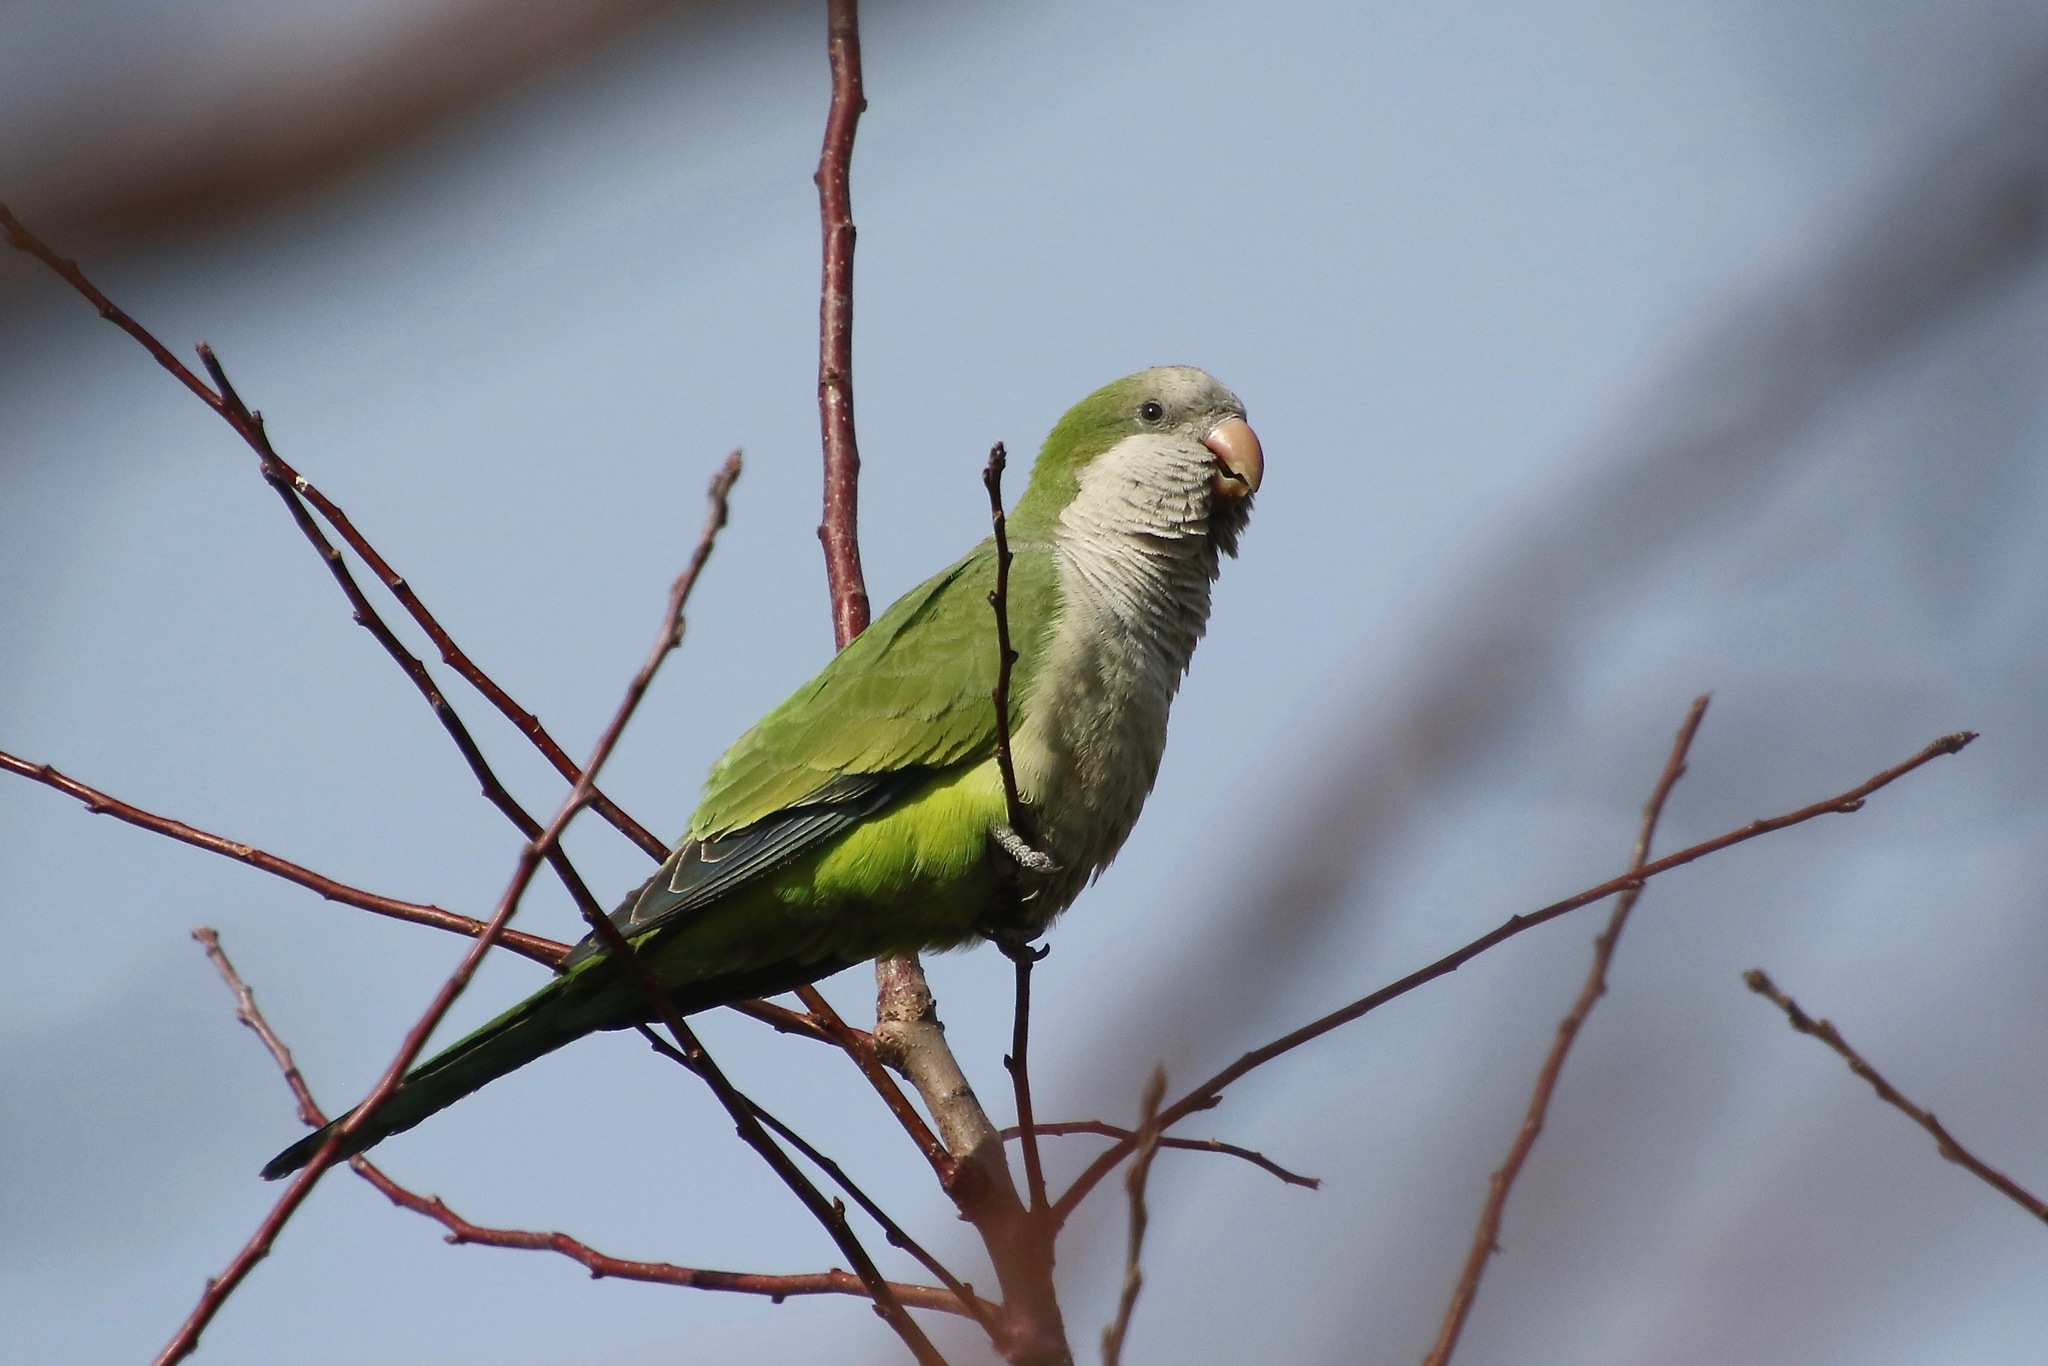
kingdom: Animalia
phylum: Chordata
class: Aves
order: Psittaciformes
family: Psittacidae
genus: Myiopsitta
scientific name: Myiopsitta monachus
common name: Monk parakeet
